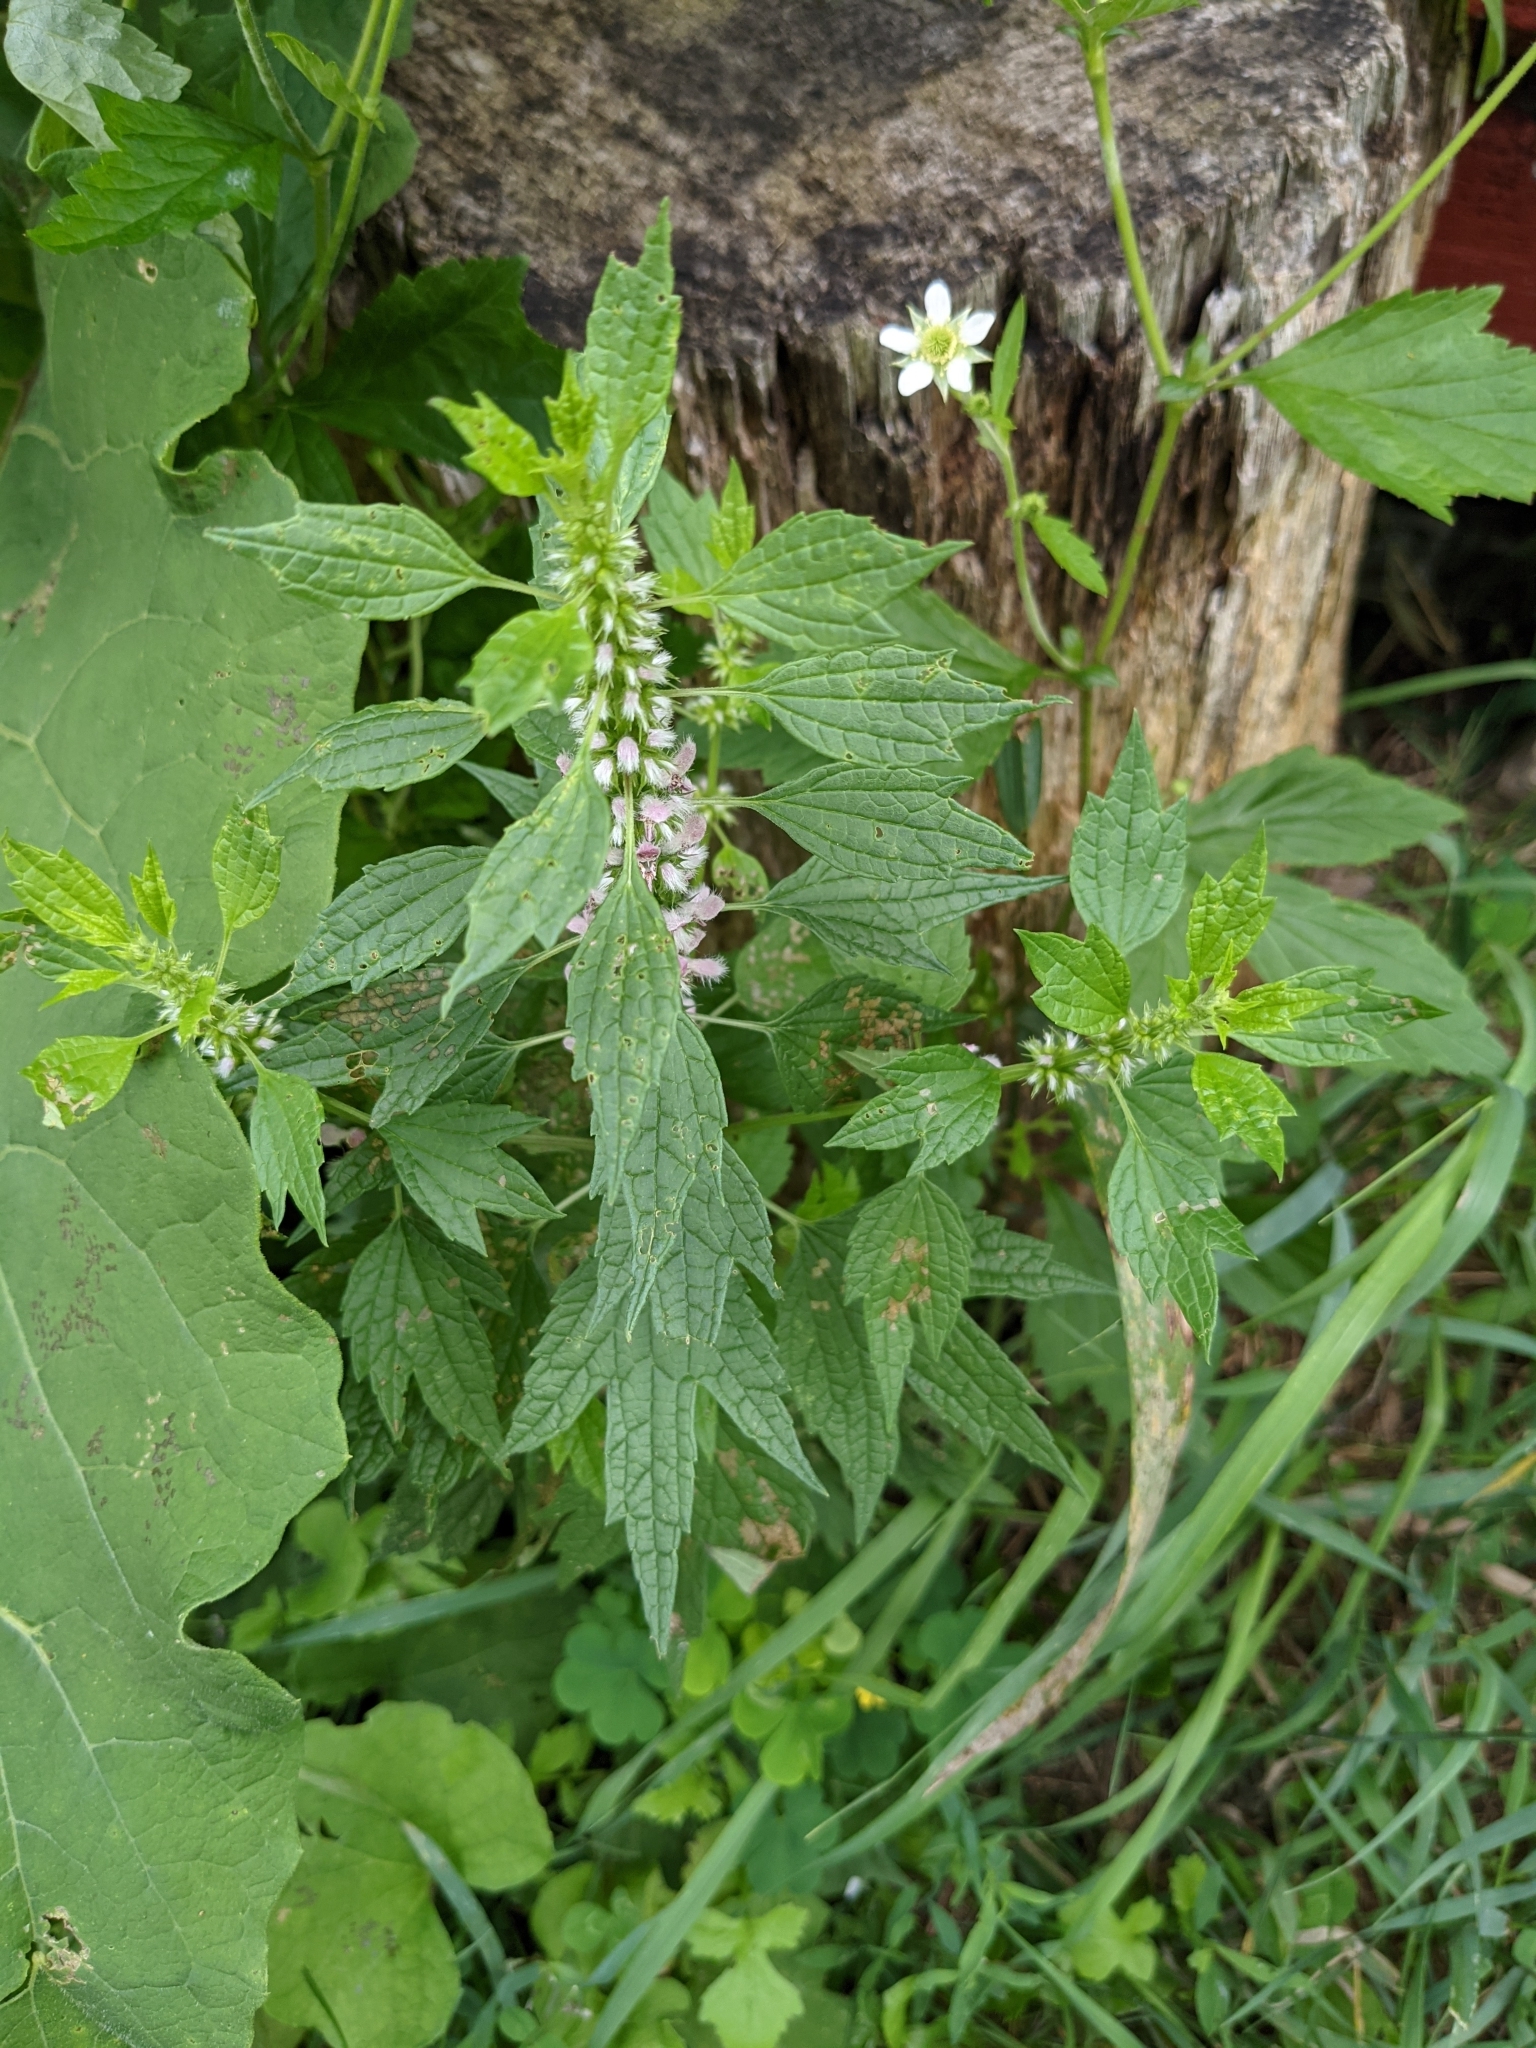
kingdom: Plantae
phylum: Tracheophyta
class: Magnoliopsida
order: Lamiales
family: Lamiaceae
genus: Leonurus
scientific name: Leonurus cardiaca
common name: Motherwort
